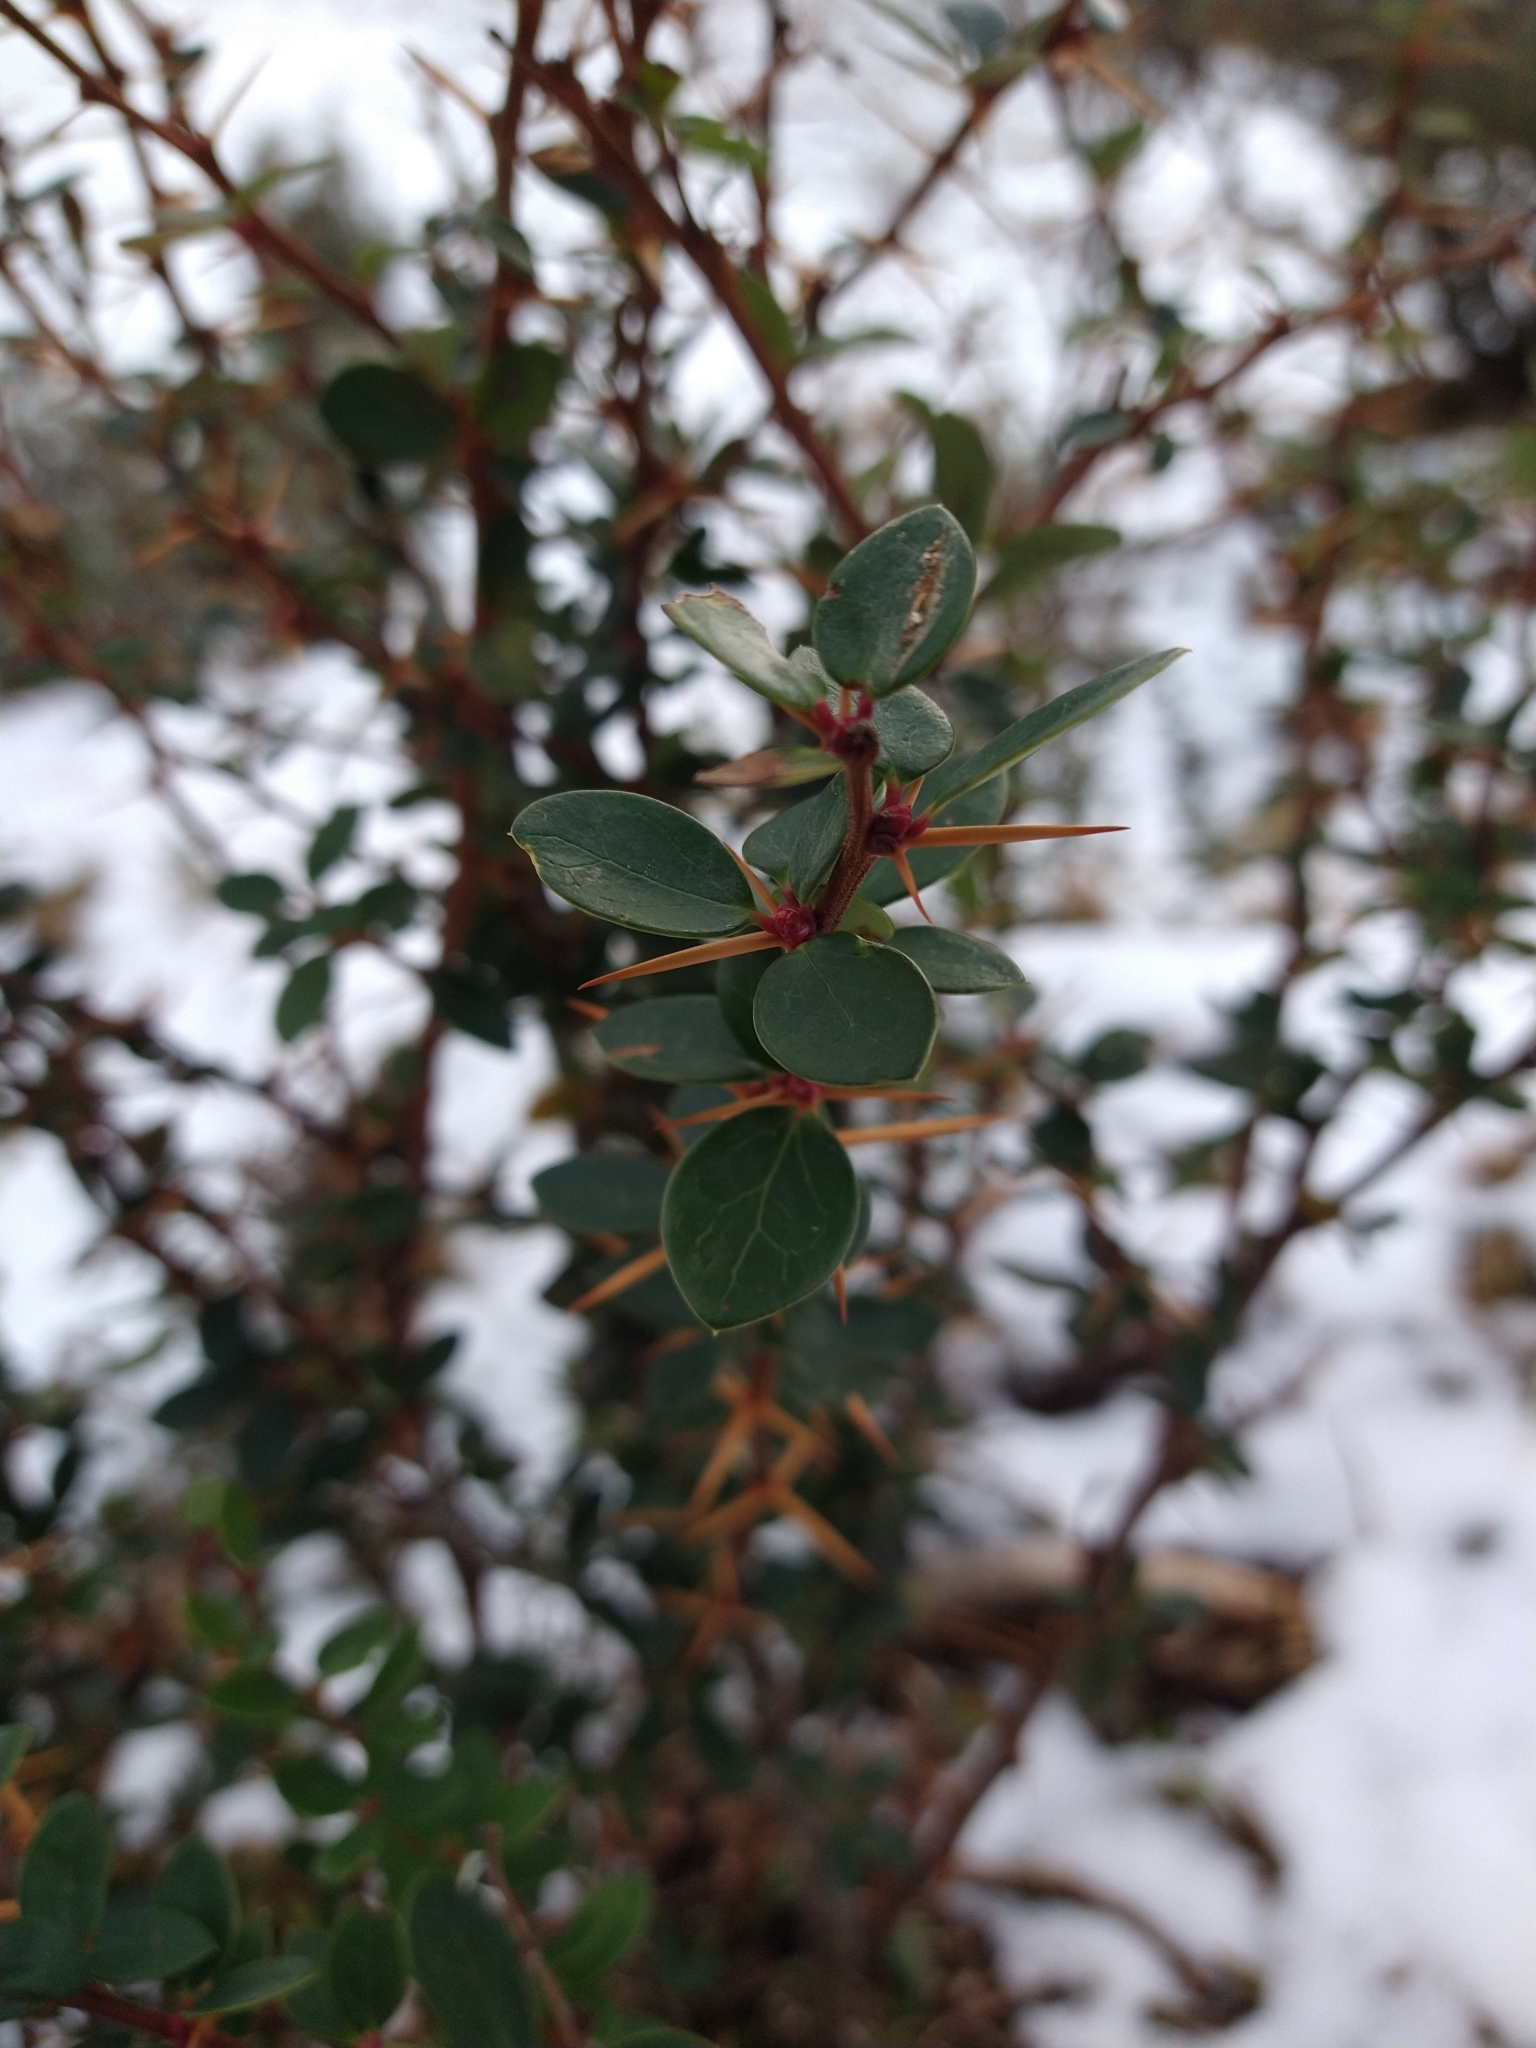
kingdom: Plantae
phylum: Tracheophyta
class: Magnoliopsida
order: Ranunculales
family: Berberidaceae
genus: Berberis
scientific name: Berberis microphylla
